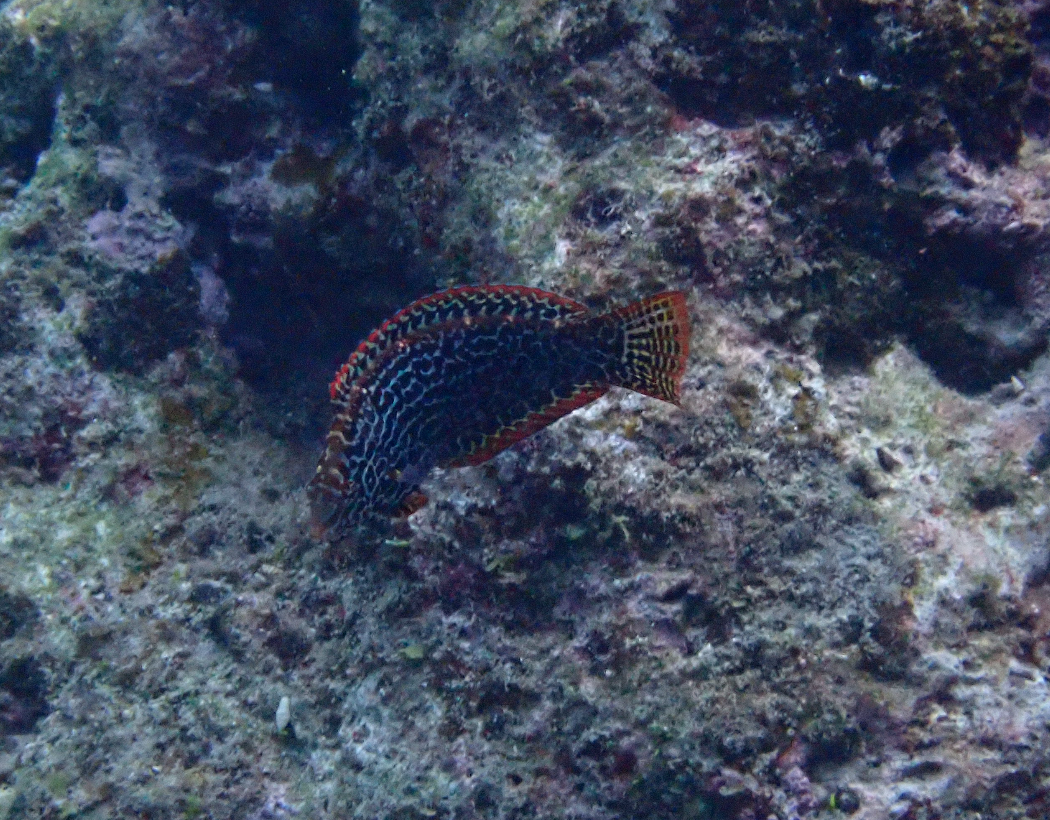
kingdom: Animalia
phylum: Chordata
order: Perciformes
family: Labridae
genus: Macropharyngodon
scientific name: Macropharyngodon meleagris
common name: Leopard wrasse
